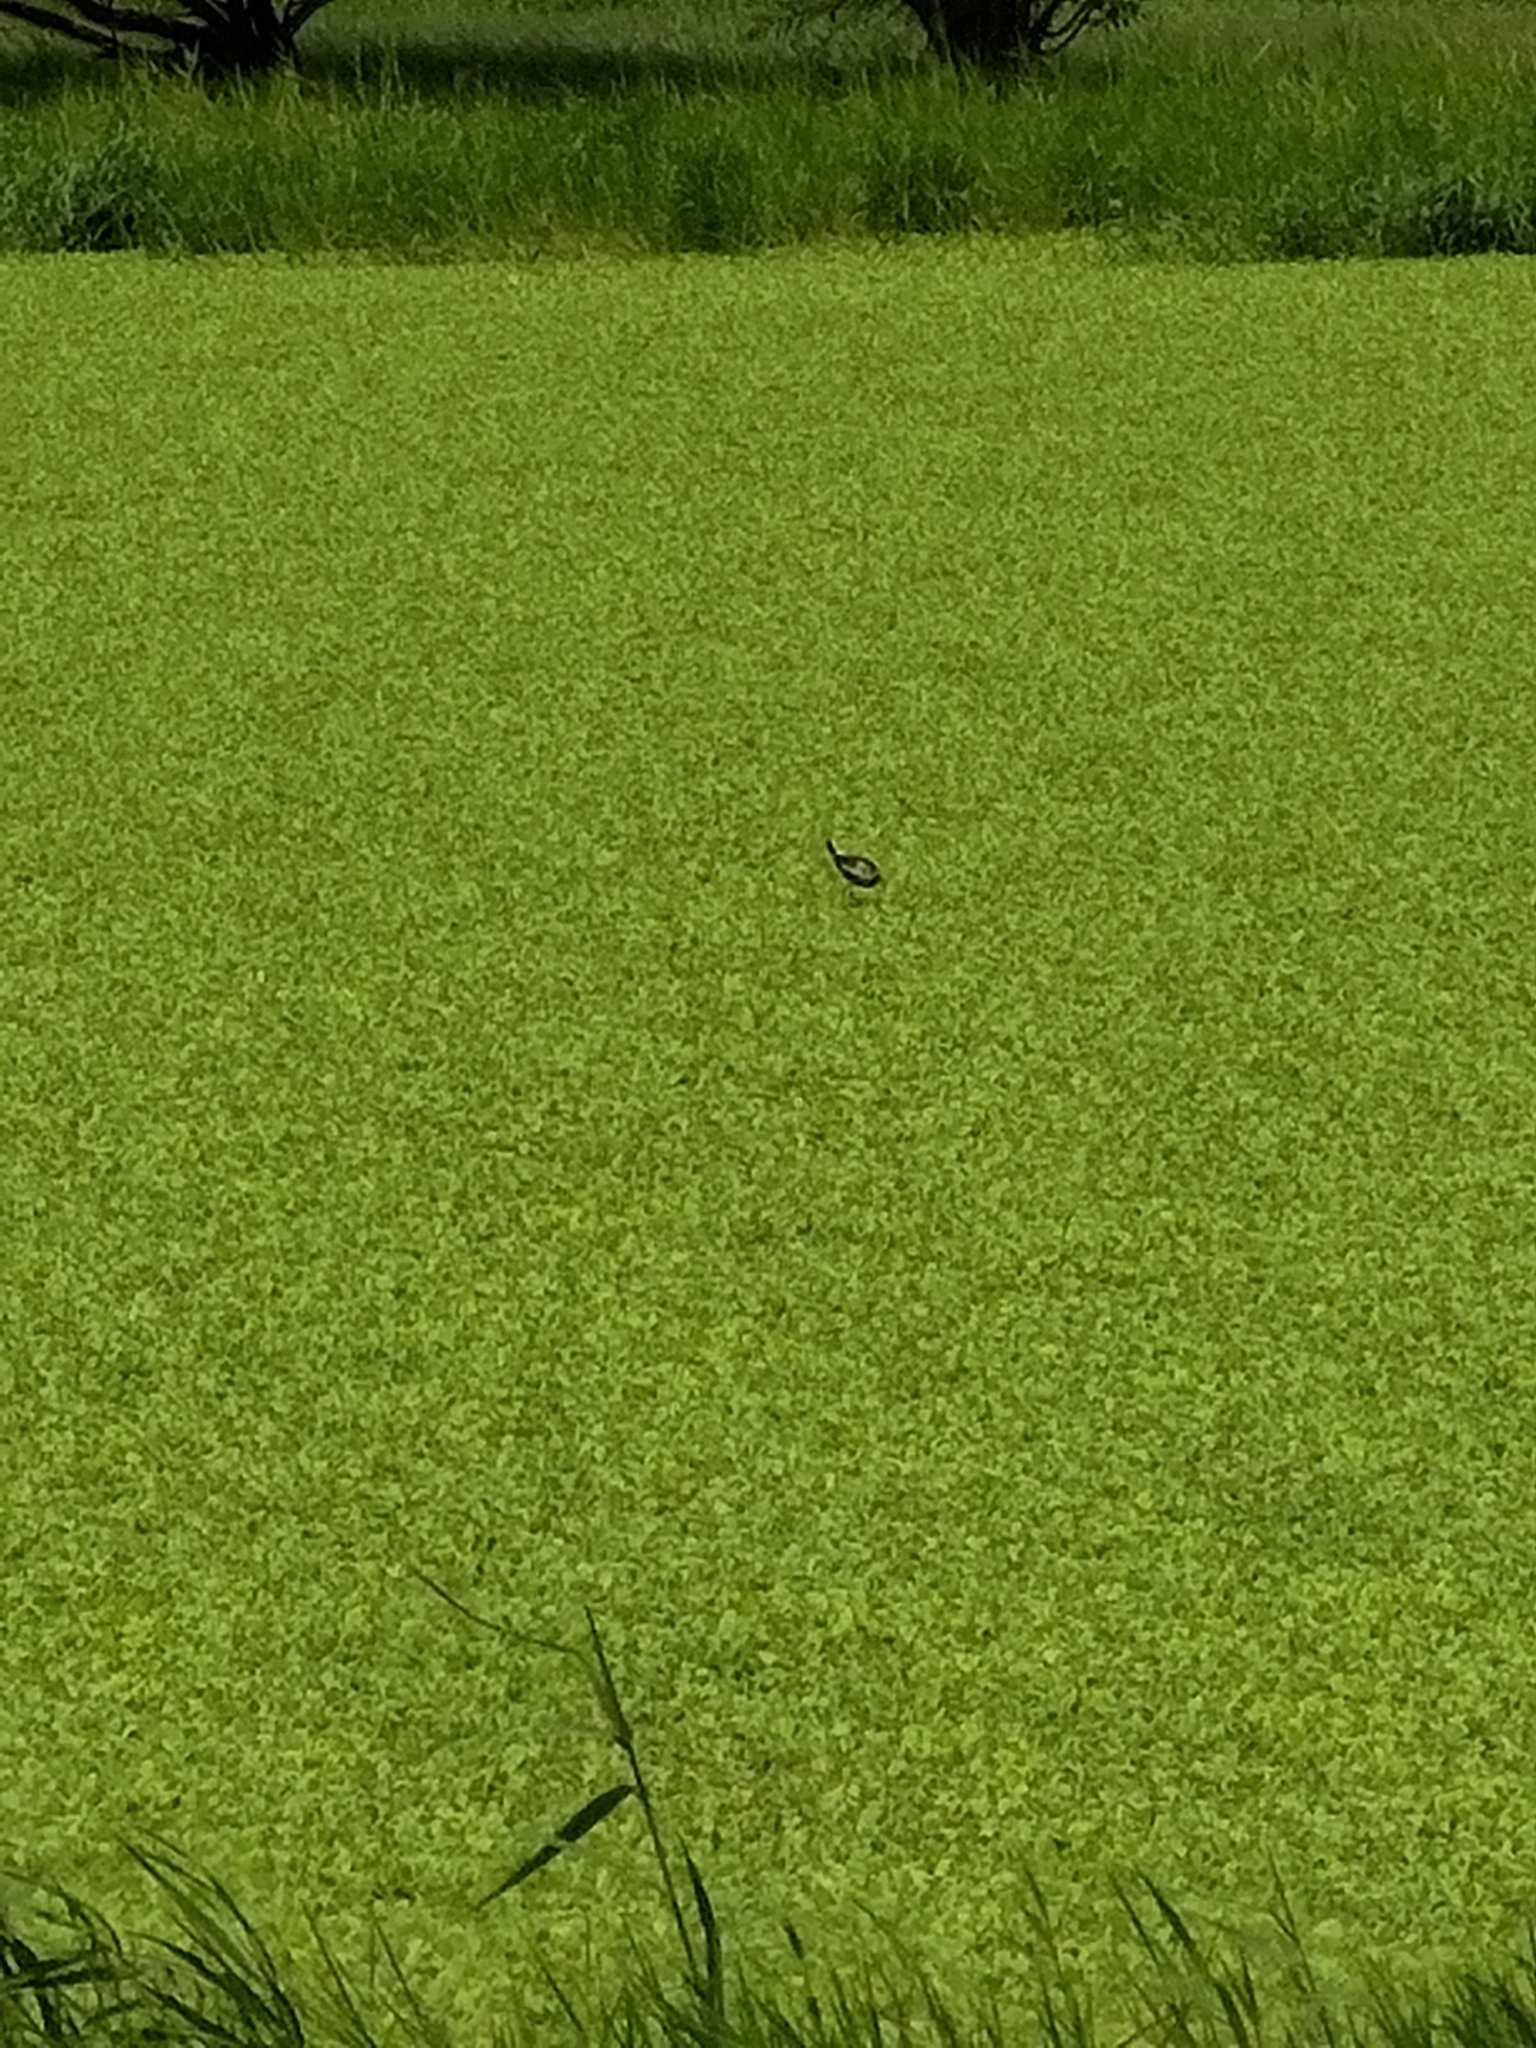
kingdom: Animalia
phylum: Chordata
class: Aves
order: Charadriiformes
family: Jacanidae
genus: Hydrophasianus
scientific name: Hydrophasianus chirurgus
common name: Pheasant-tailed jacana
